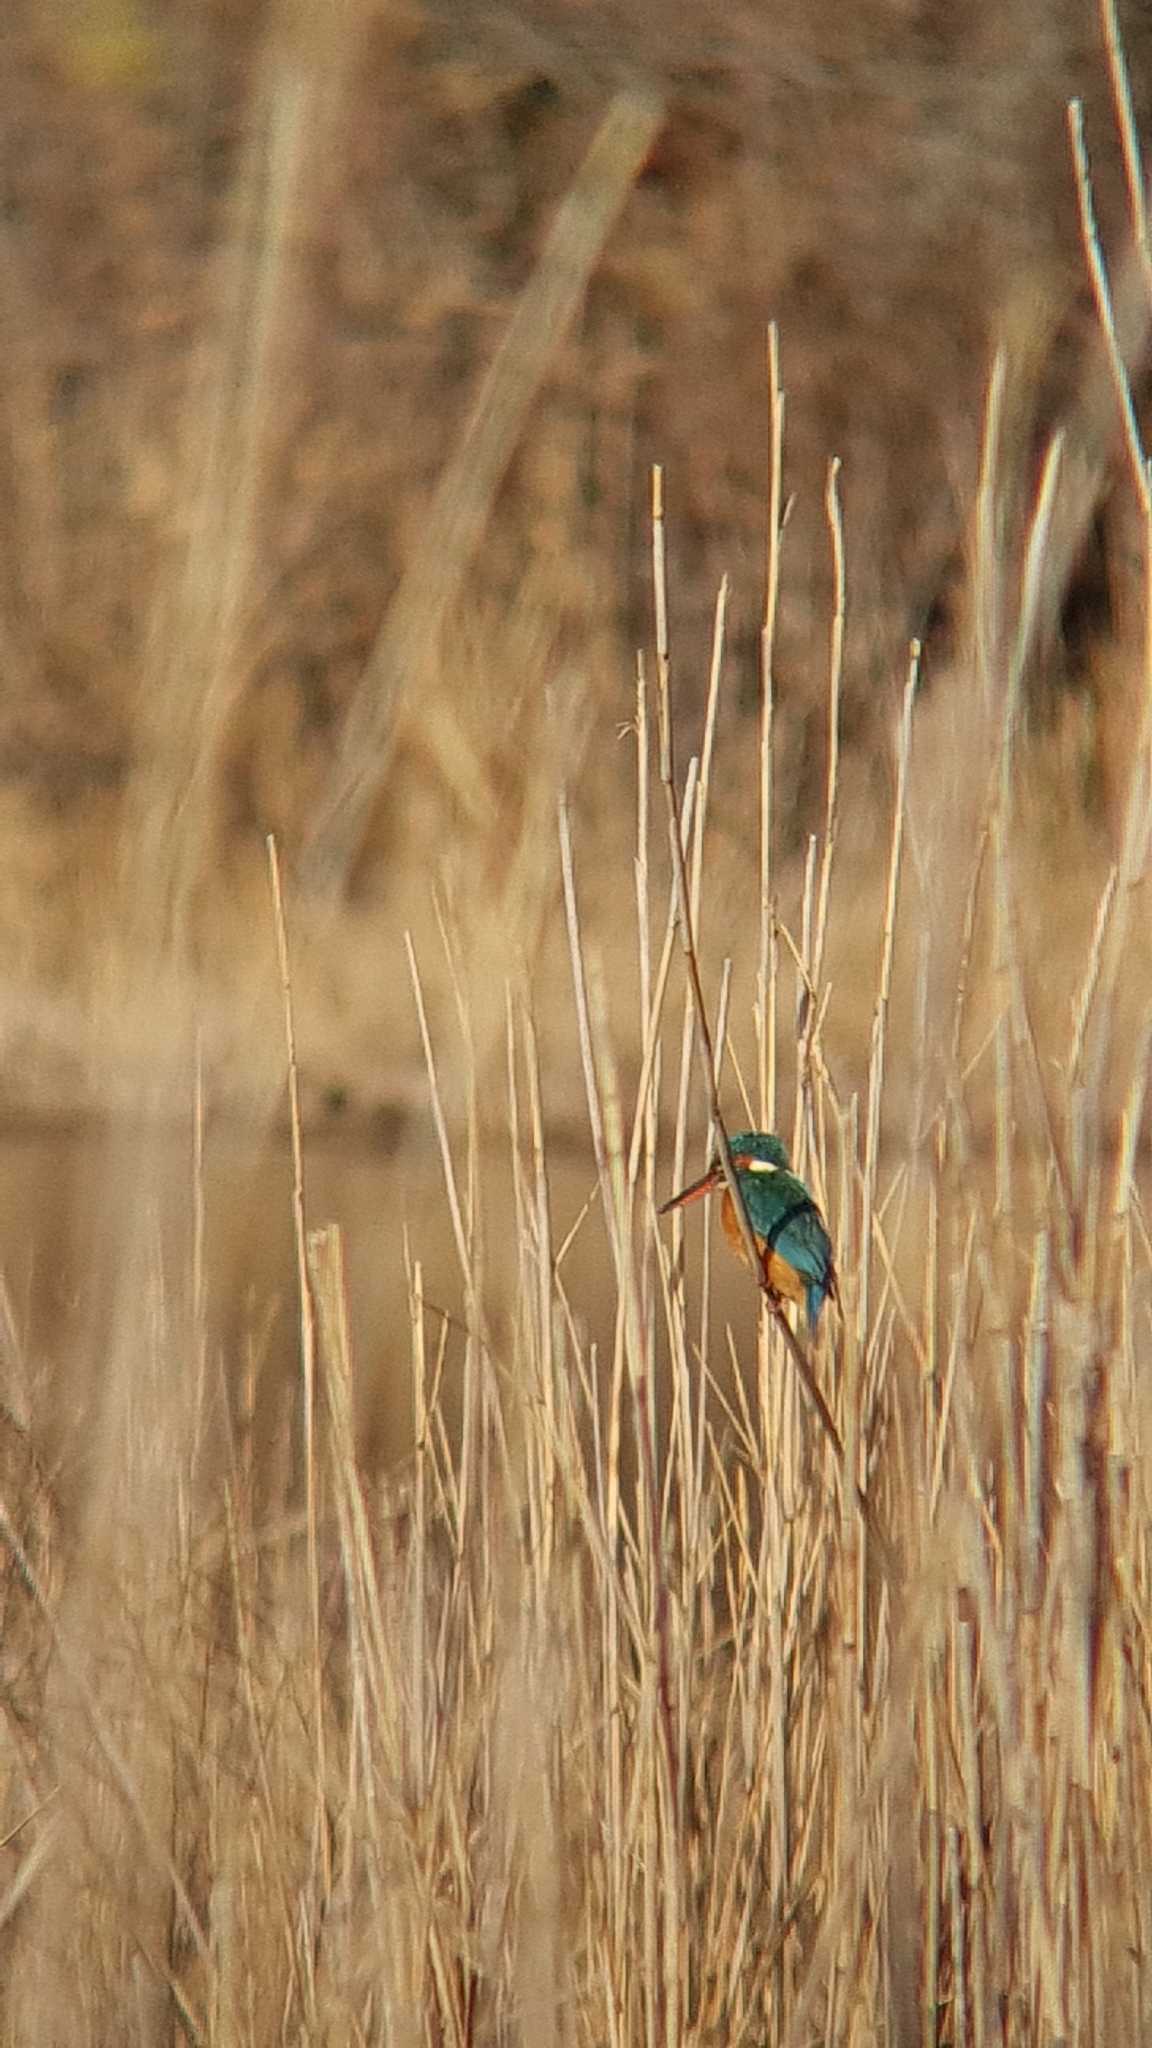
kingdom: Animalia
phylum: Chordata
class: Aves
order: Coraciiformes
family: Alcedinidae
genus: Alcedo
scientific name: Alcedo atthis
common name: Common kingfisher
